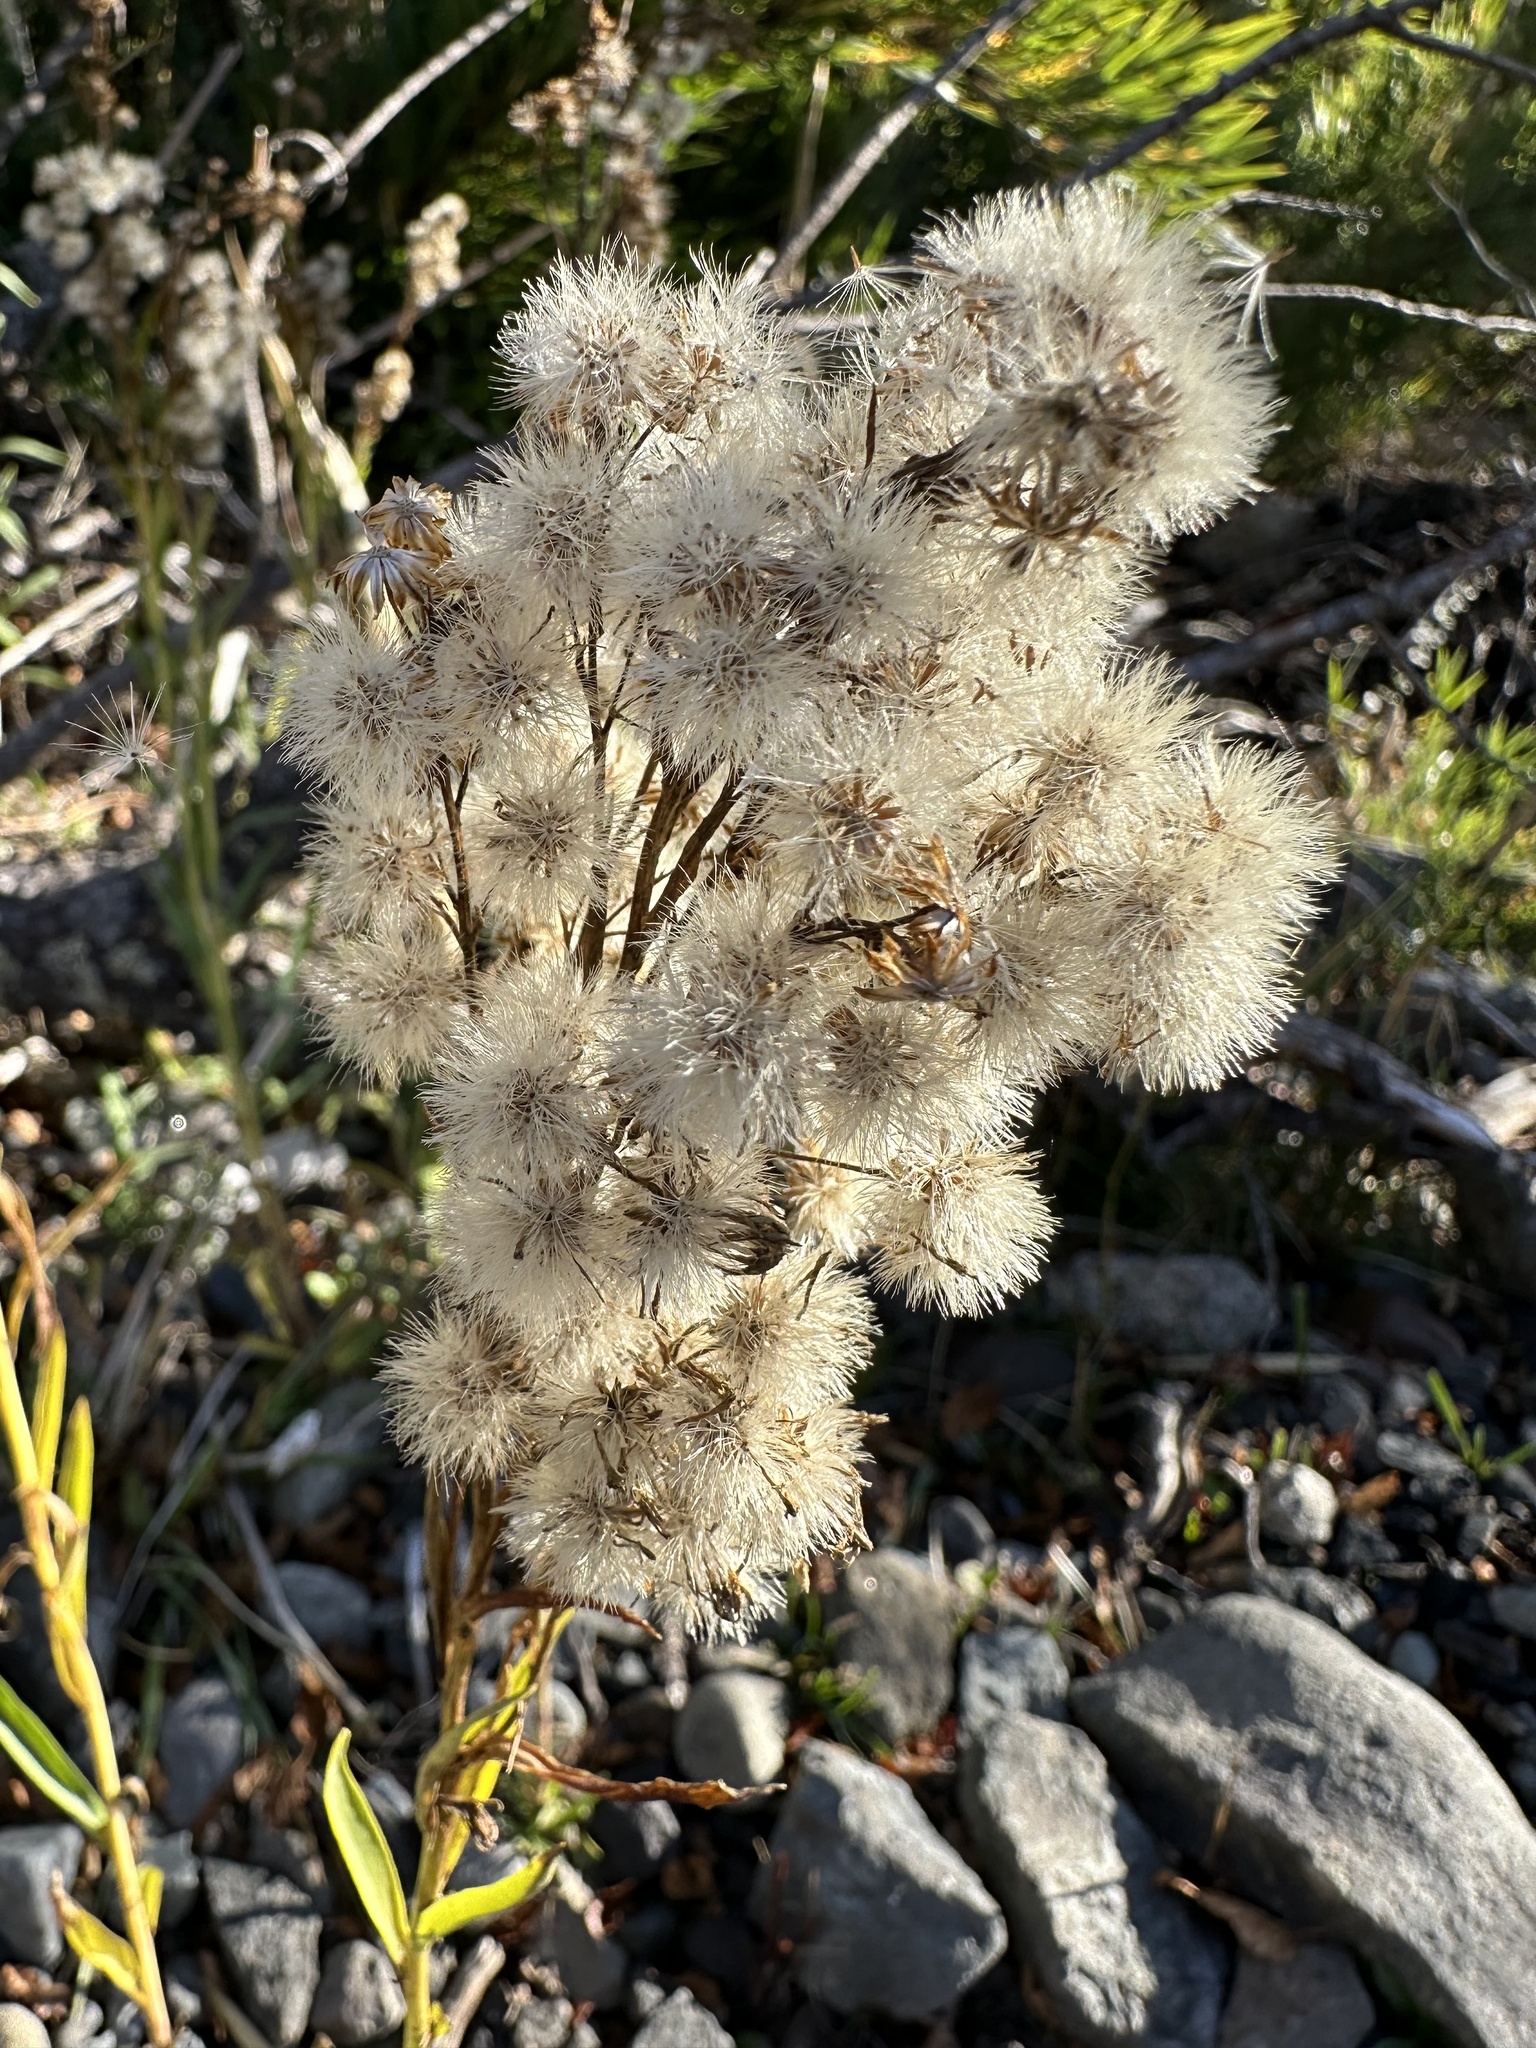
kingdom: Plantae
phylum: Tracheophyta
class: Magnoliopsida
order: Asterales
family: Asteraceae
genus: Solidago
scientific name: Solidago chilensis
